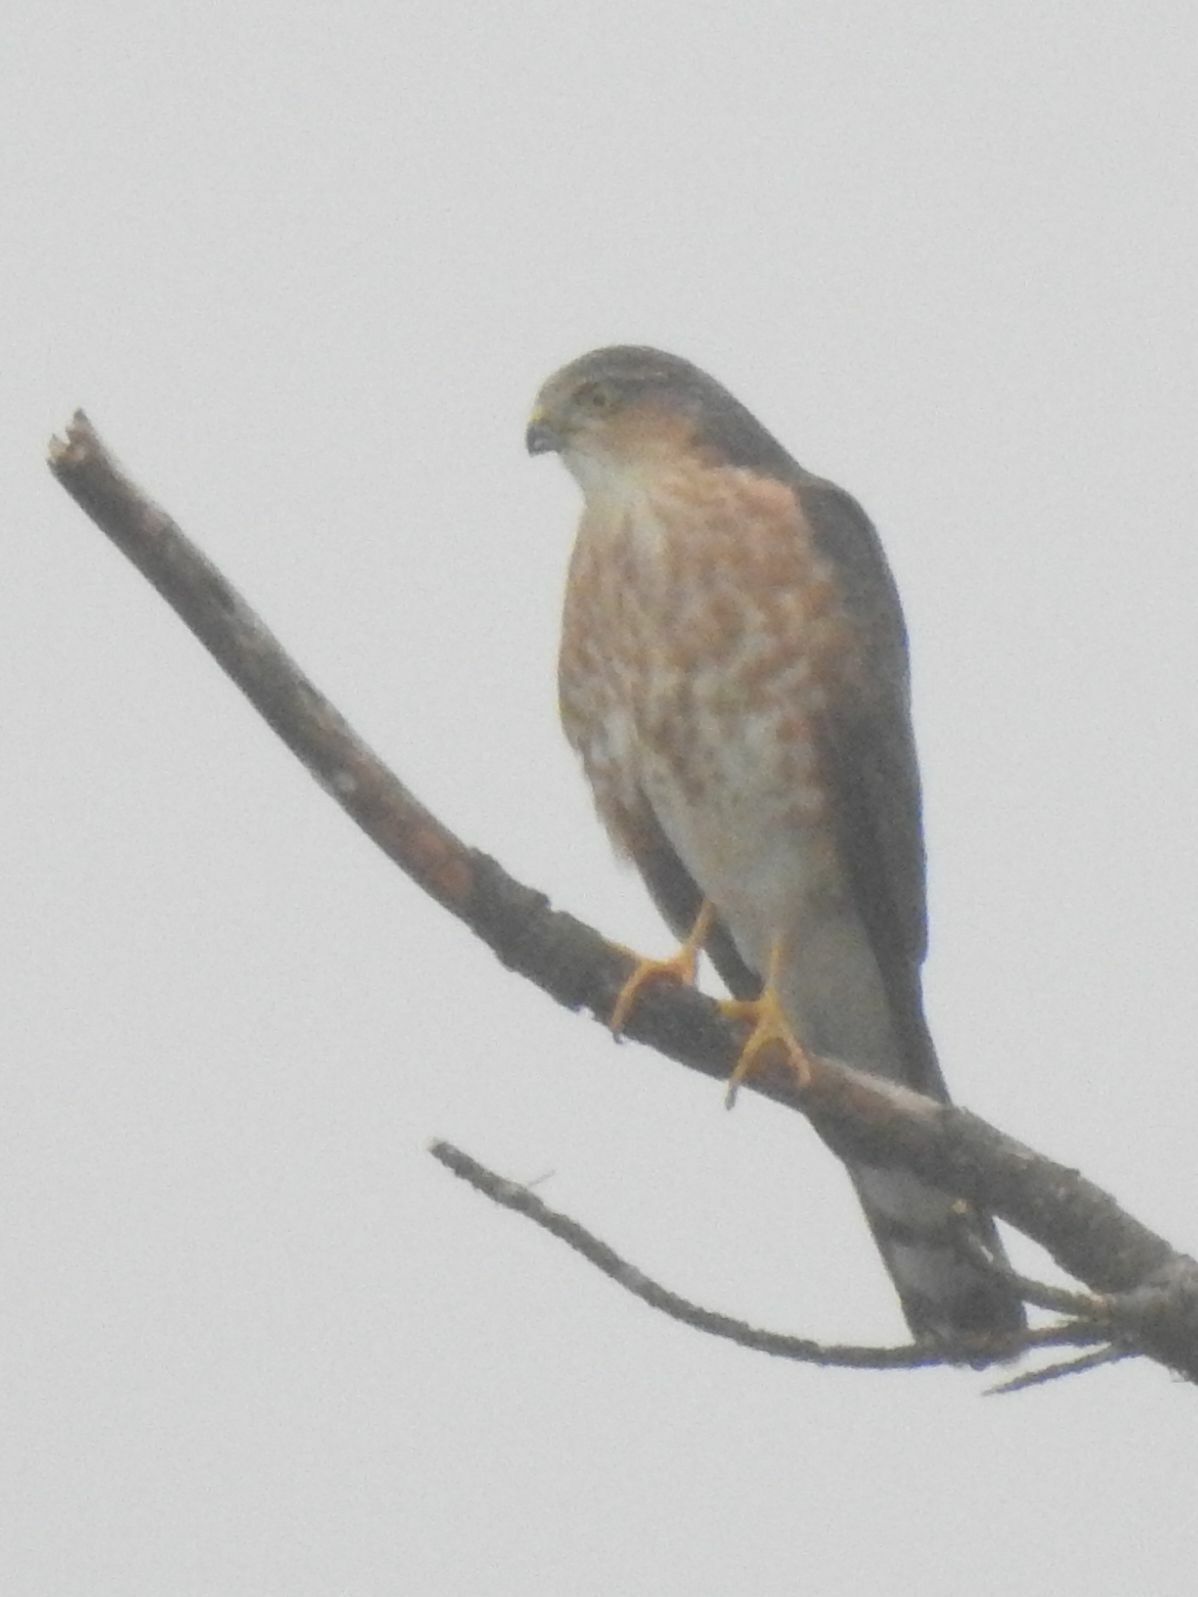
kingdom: Animalia
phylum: Chordata
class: Aves
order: Accipitriformes
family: Accipitridae
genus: Accipiter
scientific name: Accipiter rufiventris
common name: Rufous-breasted sparrowhawk
